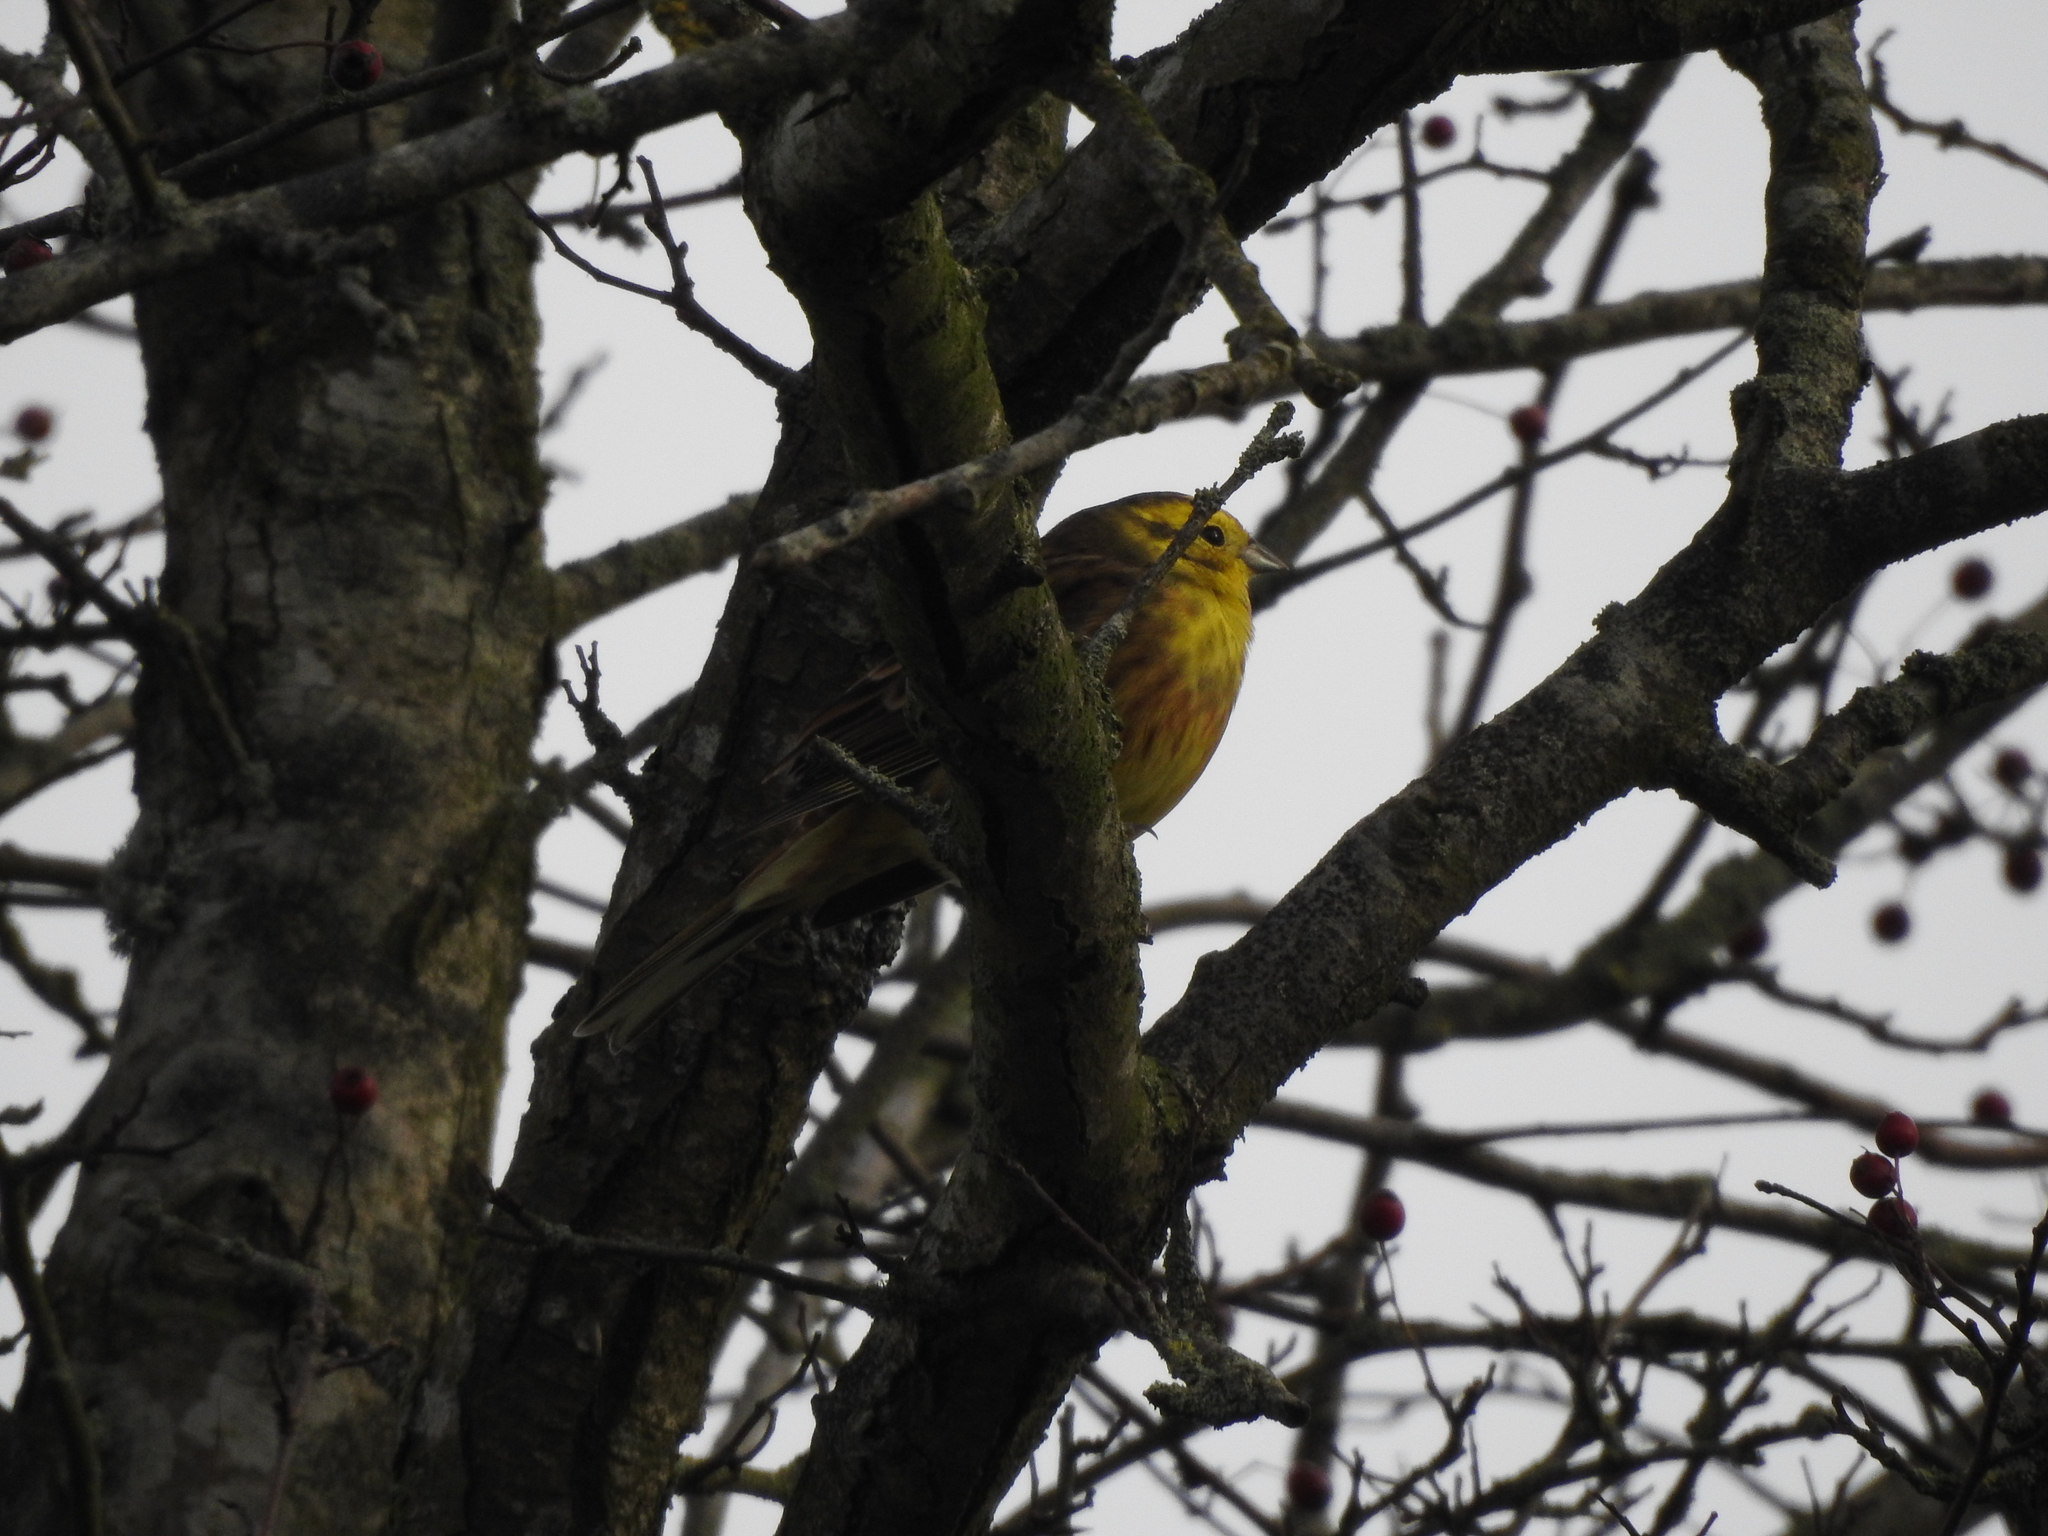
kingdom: Animalia
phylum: Chordata
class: Aves
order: Passeriformes
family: Emberizidae
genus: Emberiza
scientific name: Emberiza citrinella
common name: Yellowhammer
